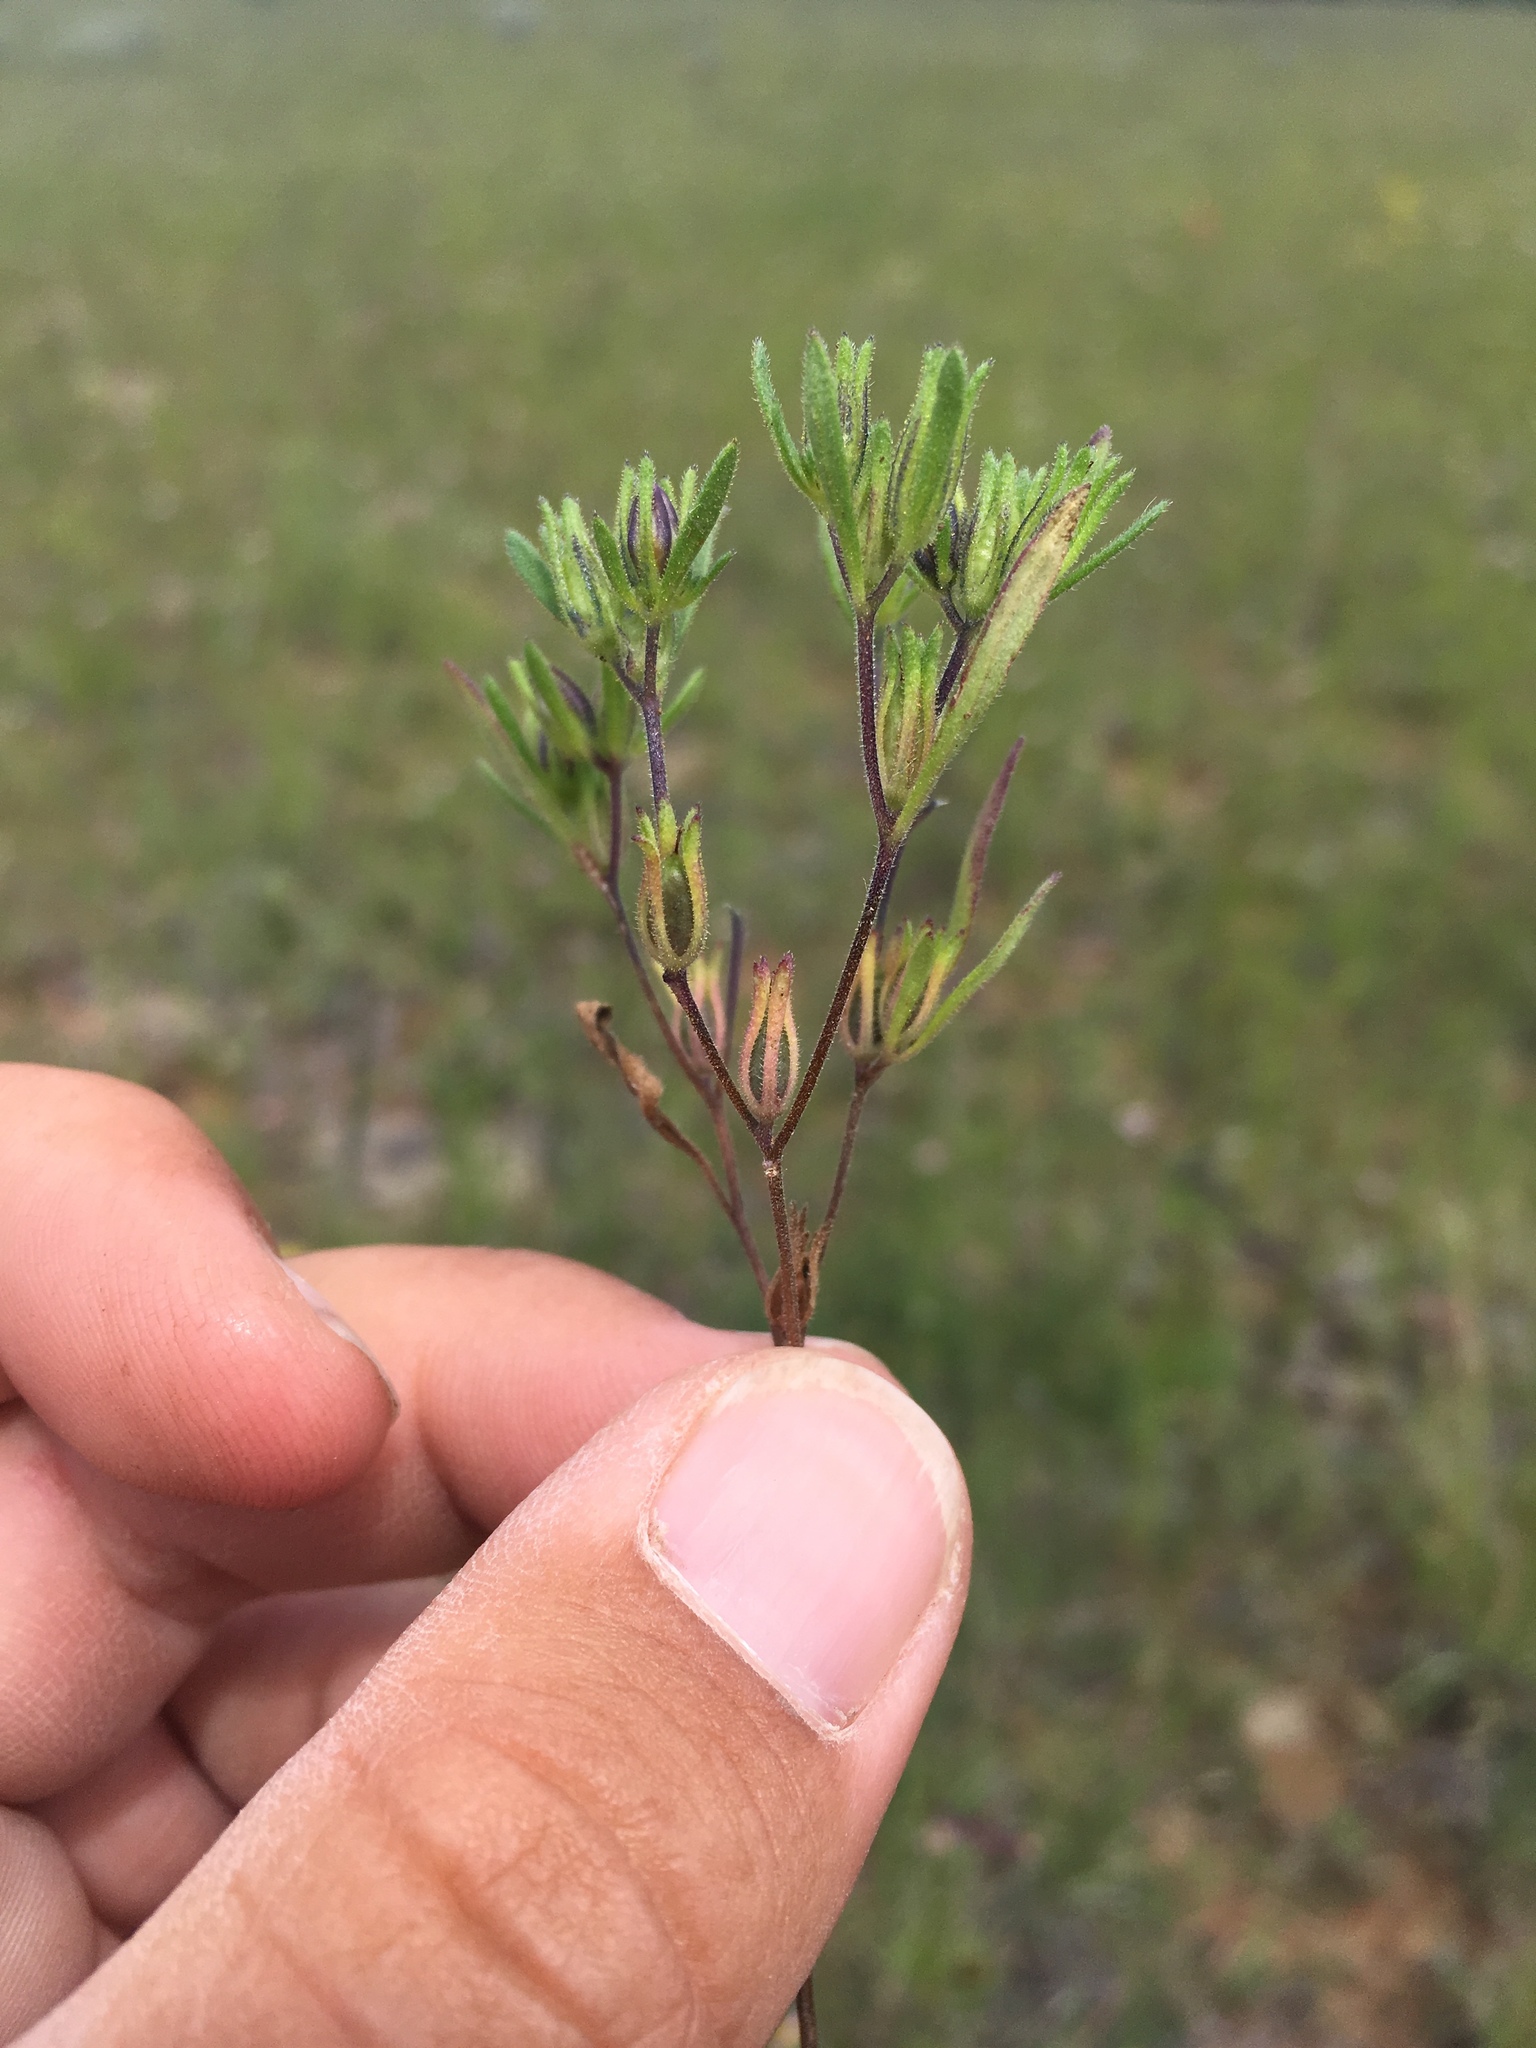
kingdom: Plantae
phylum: Tracheophyta
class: Magnoliopsida
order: Boraginales
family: Namaceae
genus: Nama
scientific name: Nama dichotoma
